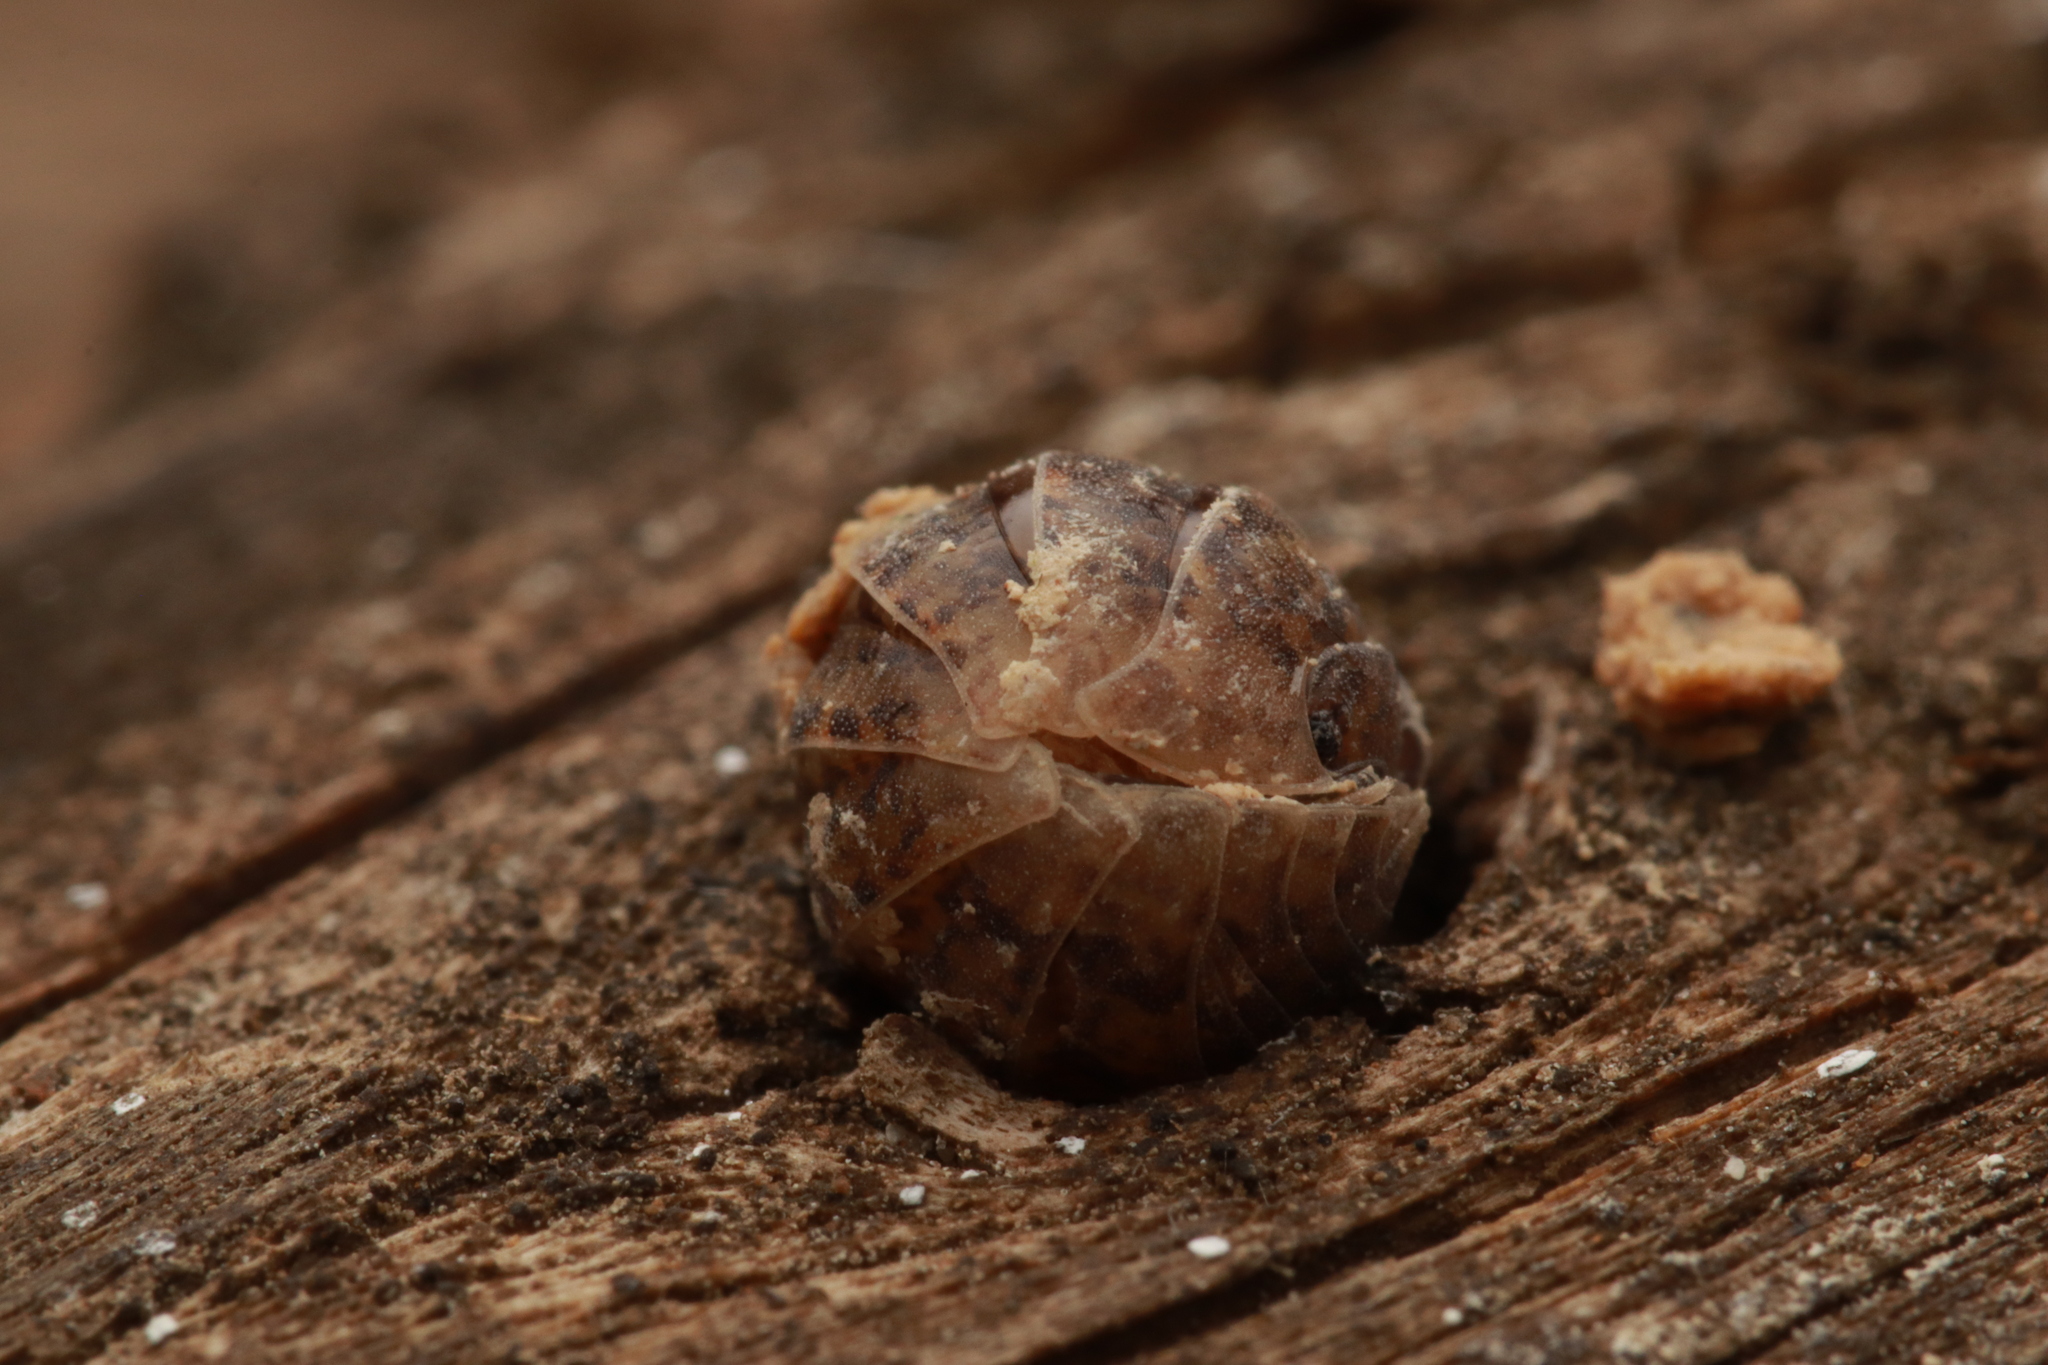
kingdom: Animalia
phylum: Arthropoda
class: Malacostraca
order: Isopoda
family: Armadillidiidae
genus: Armadillidium
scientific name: Armadillidium arcangelii
